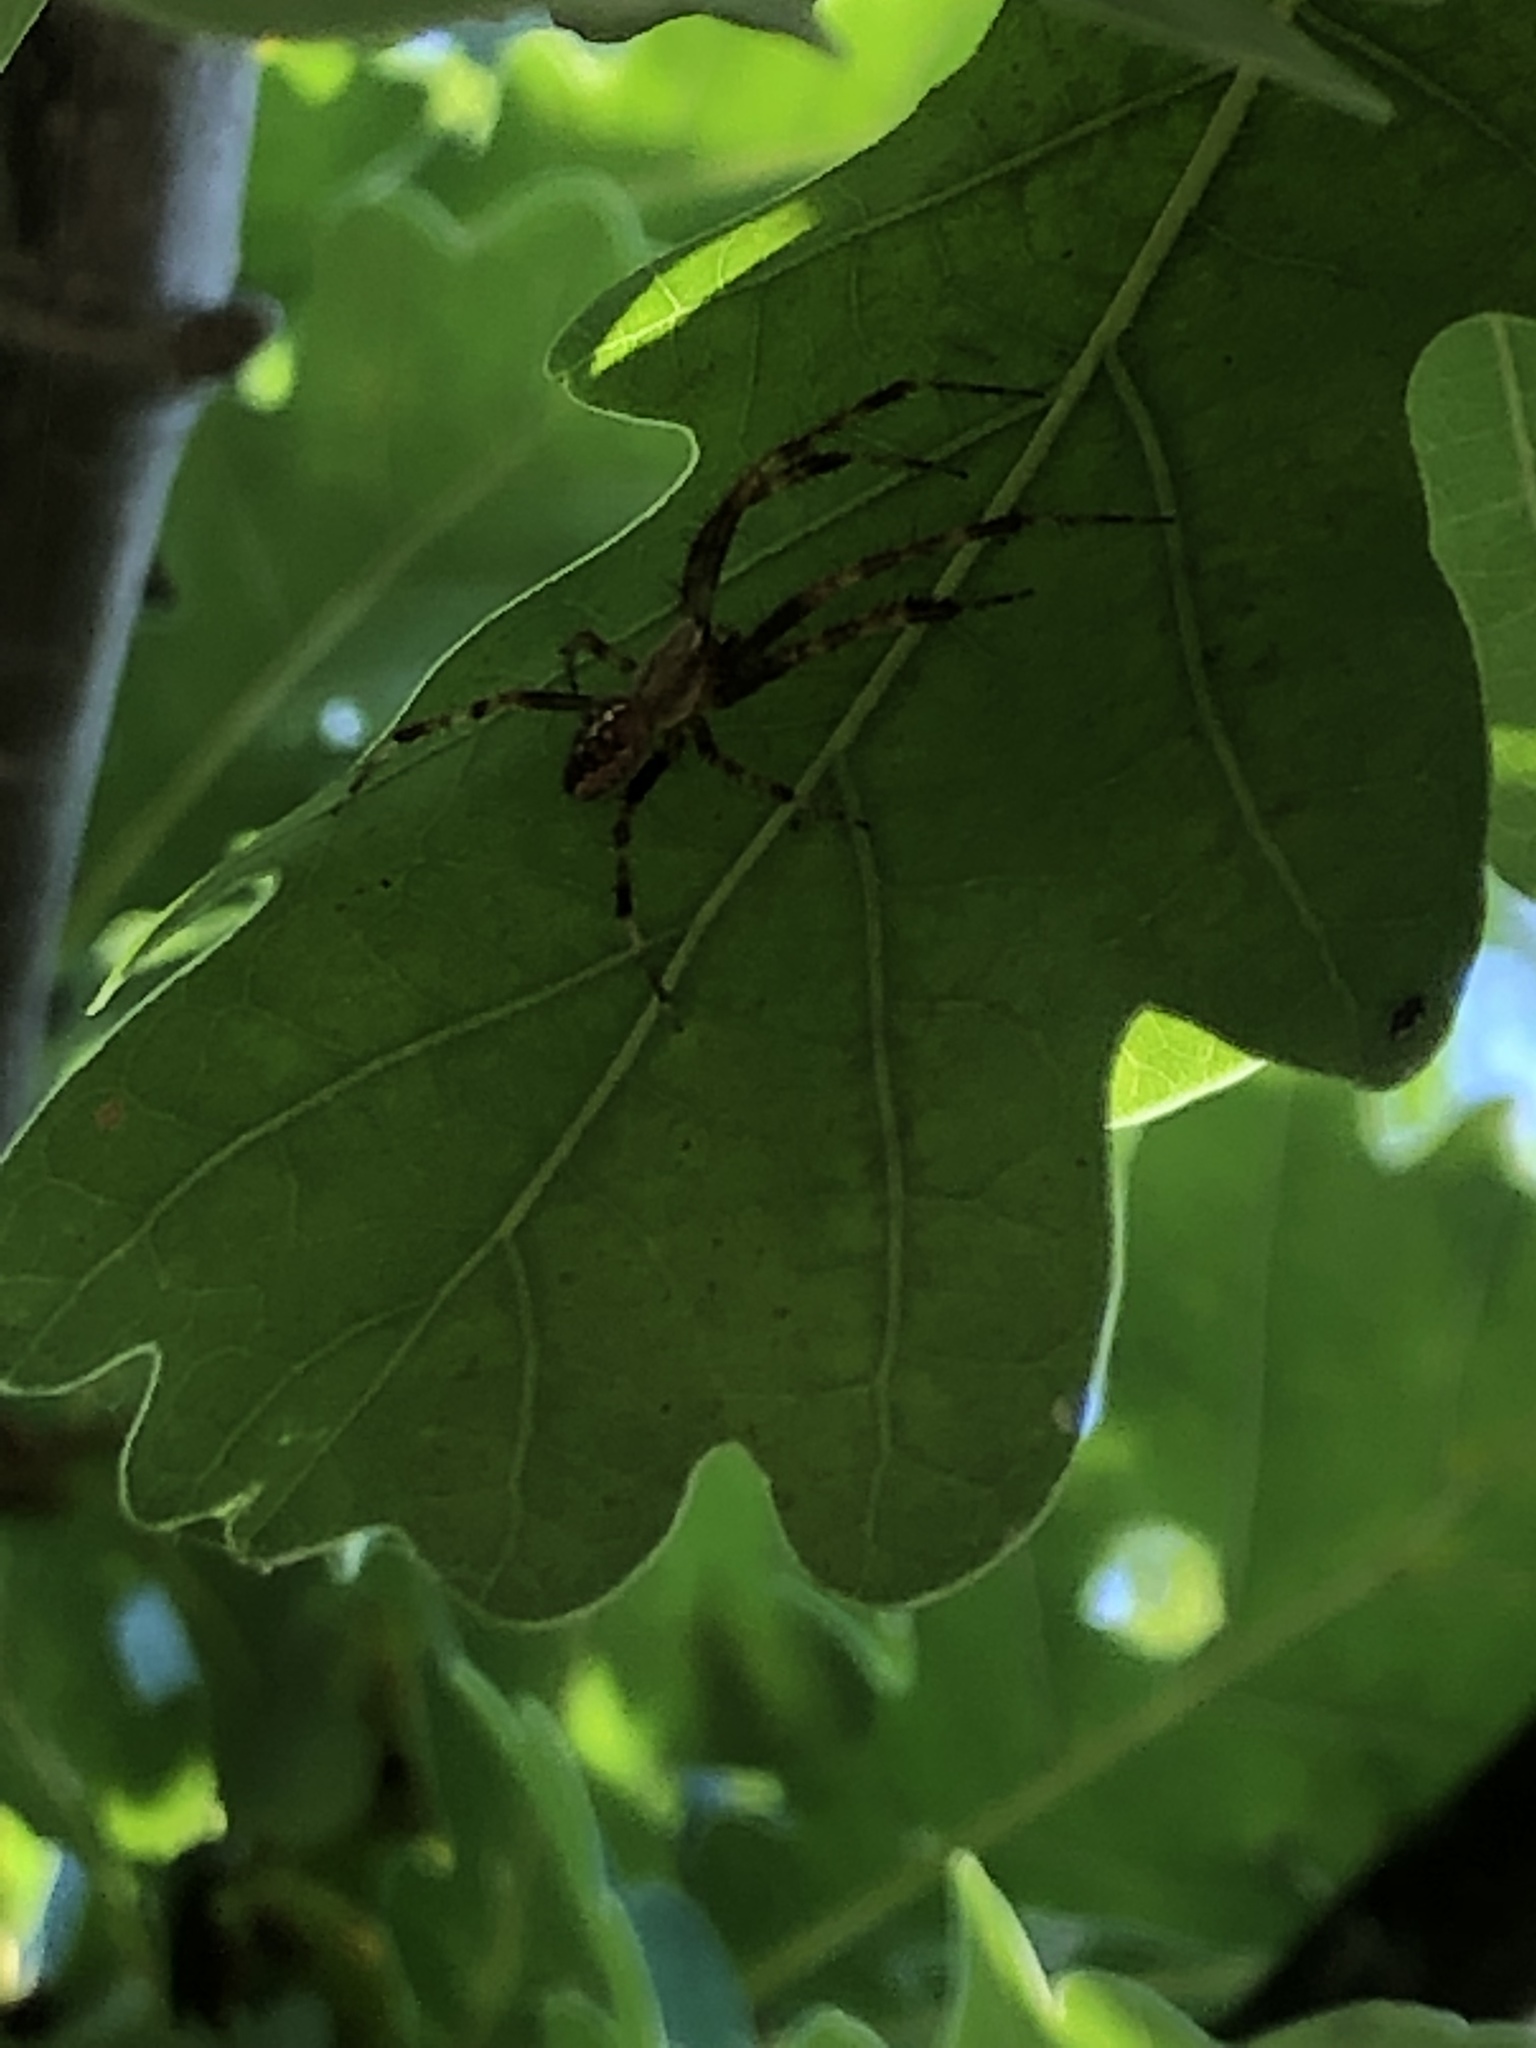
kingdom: Animalia
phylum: Arthropoda
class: Arachnida
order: Araneae
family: Araneidae
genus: Araneus
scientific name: Araneus diadematus
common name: Cross orbweaver
